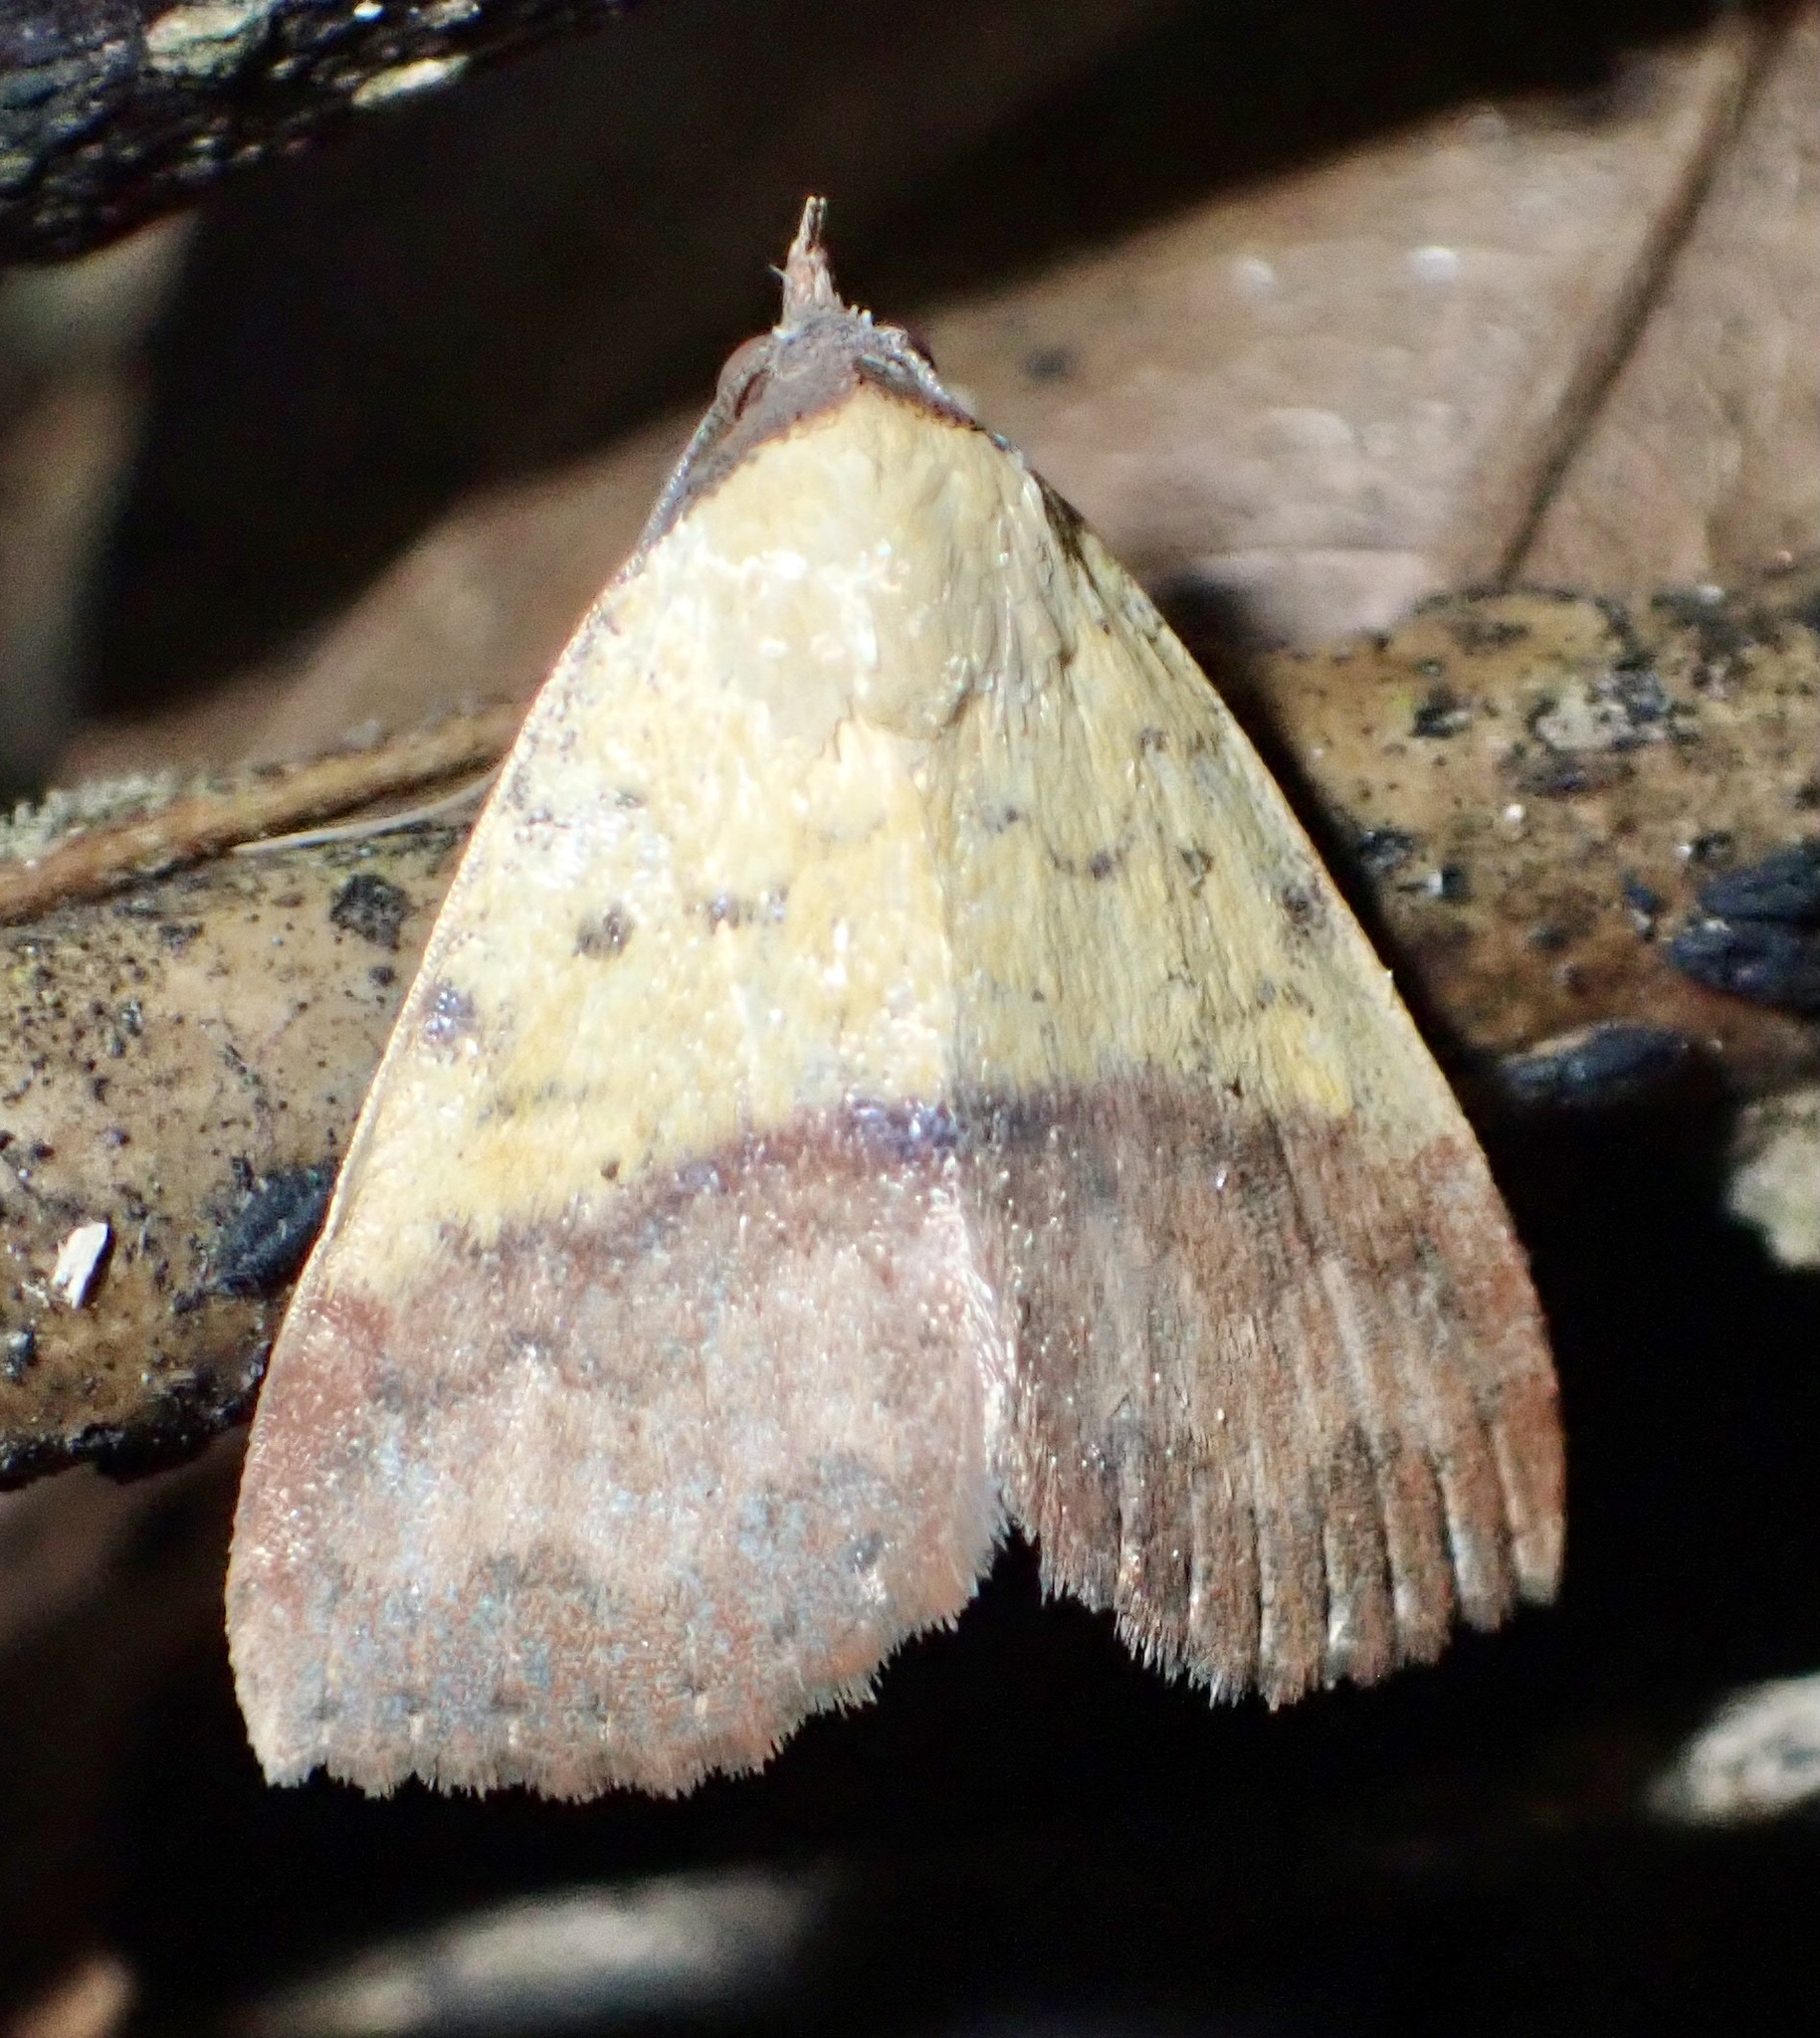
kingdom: Animalia
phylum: Arthropoda
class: Insecta
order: Lepidoptera
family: Erebidae
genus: Phytometra
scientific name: Phytometra duplicalis
